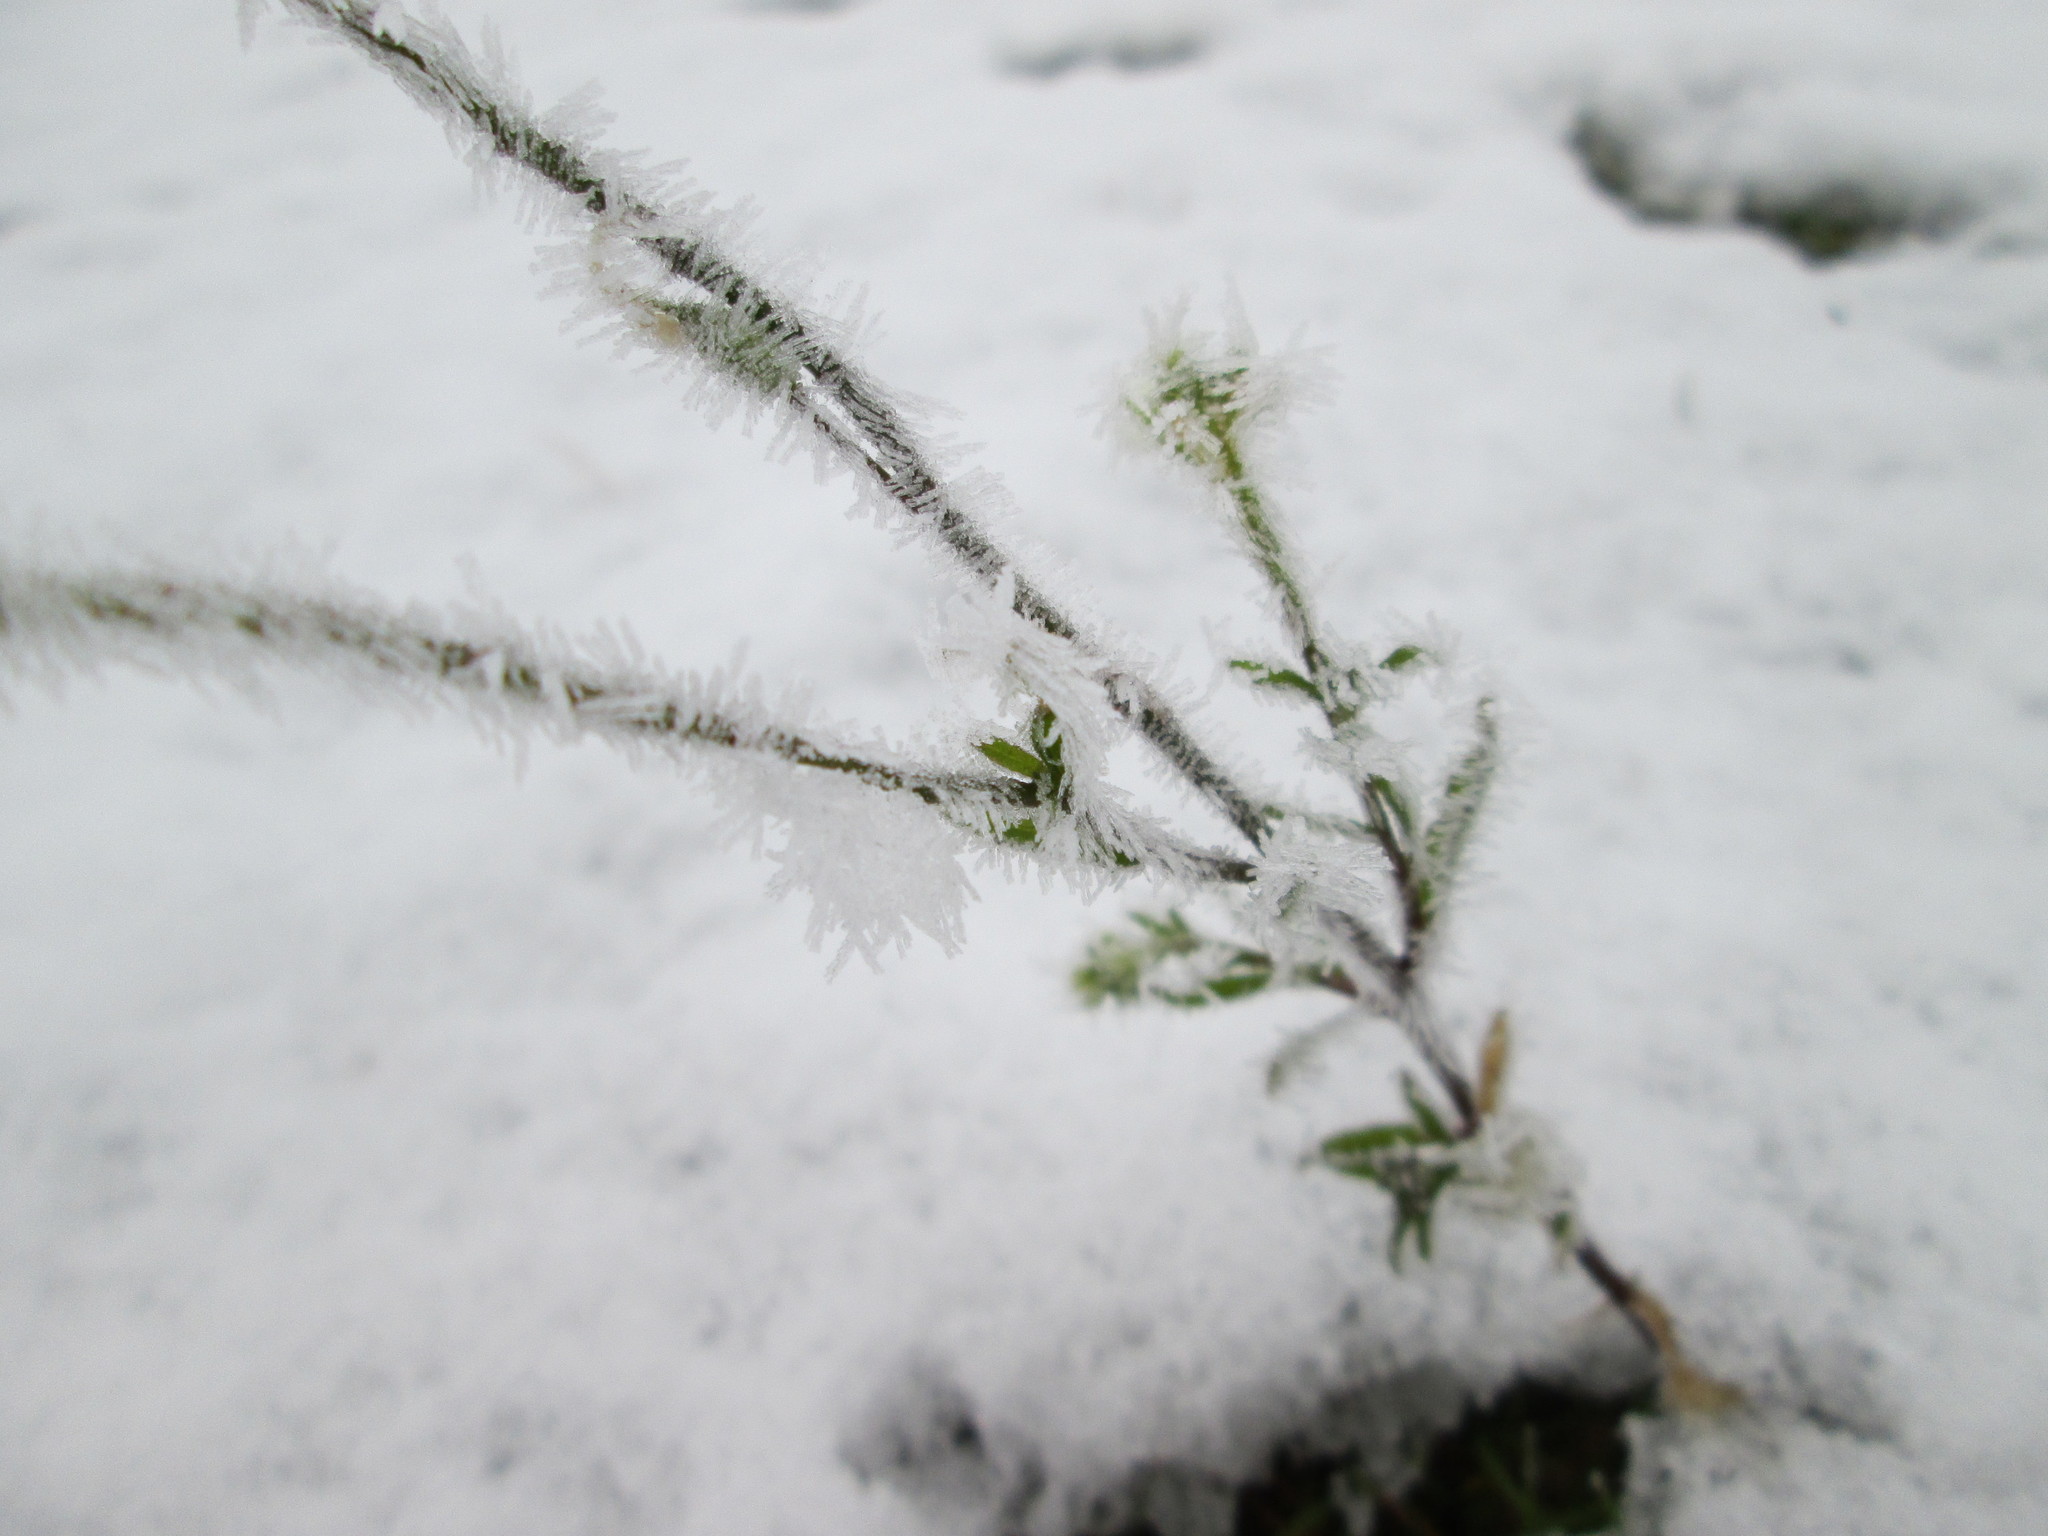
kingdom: Plantae
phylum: Tracheophyta
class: Magnoliopsida
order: Brassicales
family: Brassicaceae
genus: Berteroa
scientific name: Berteroa incana
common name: Hoary alison
